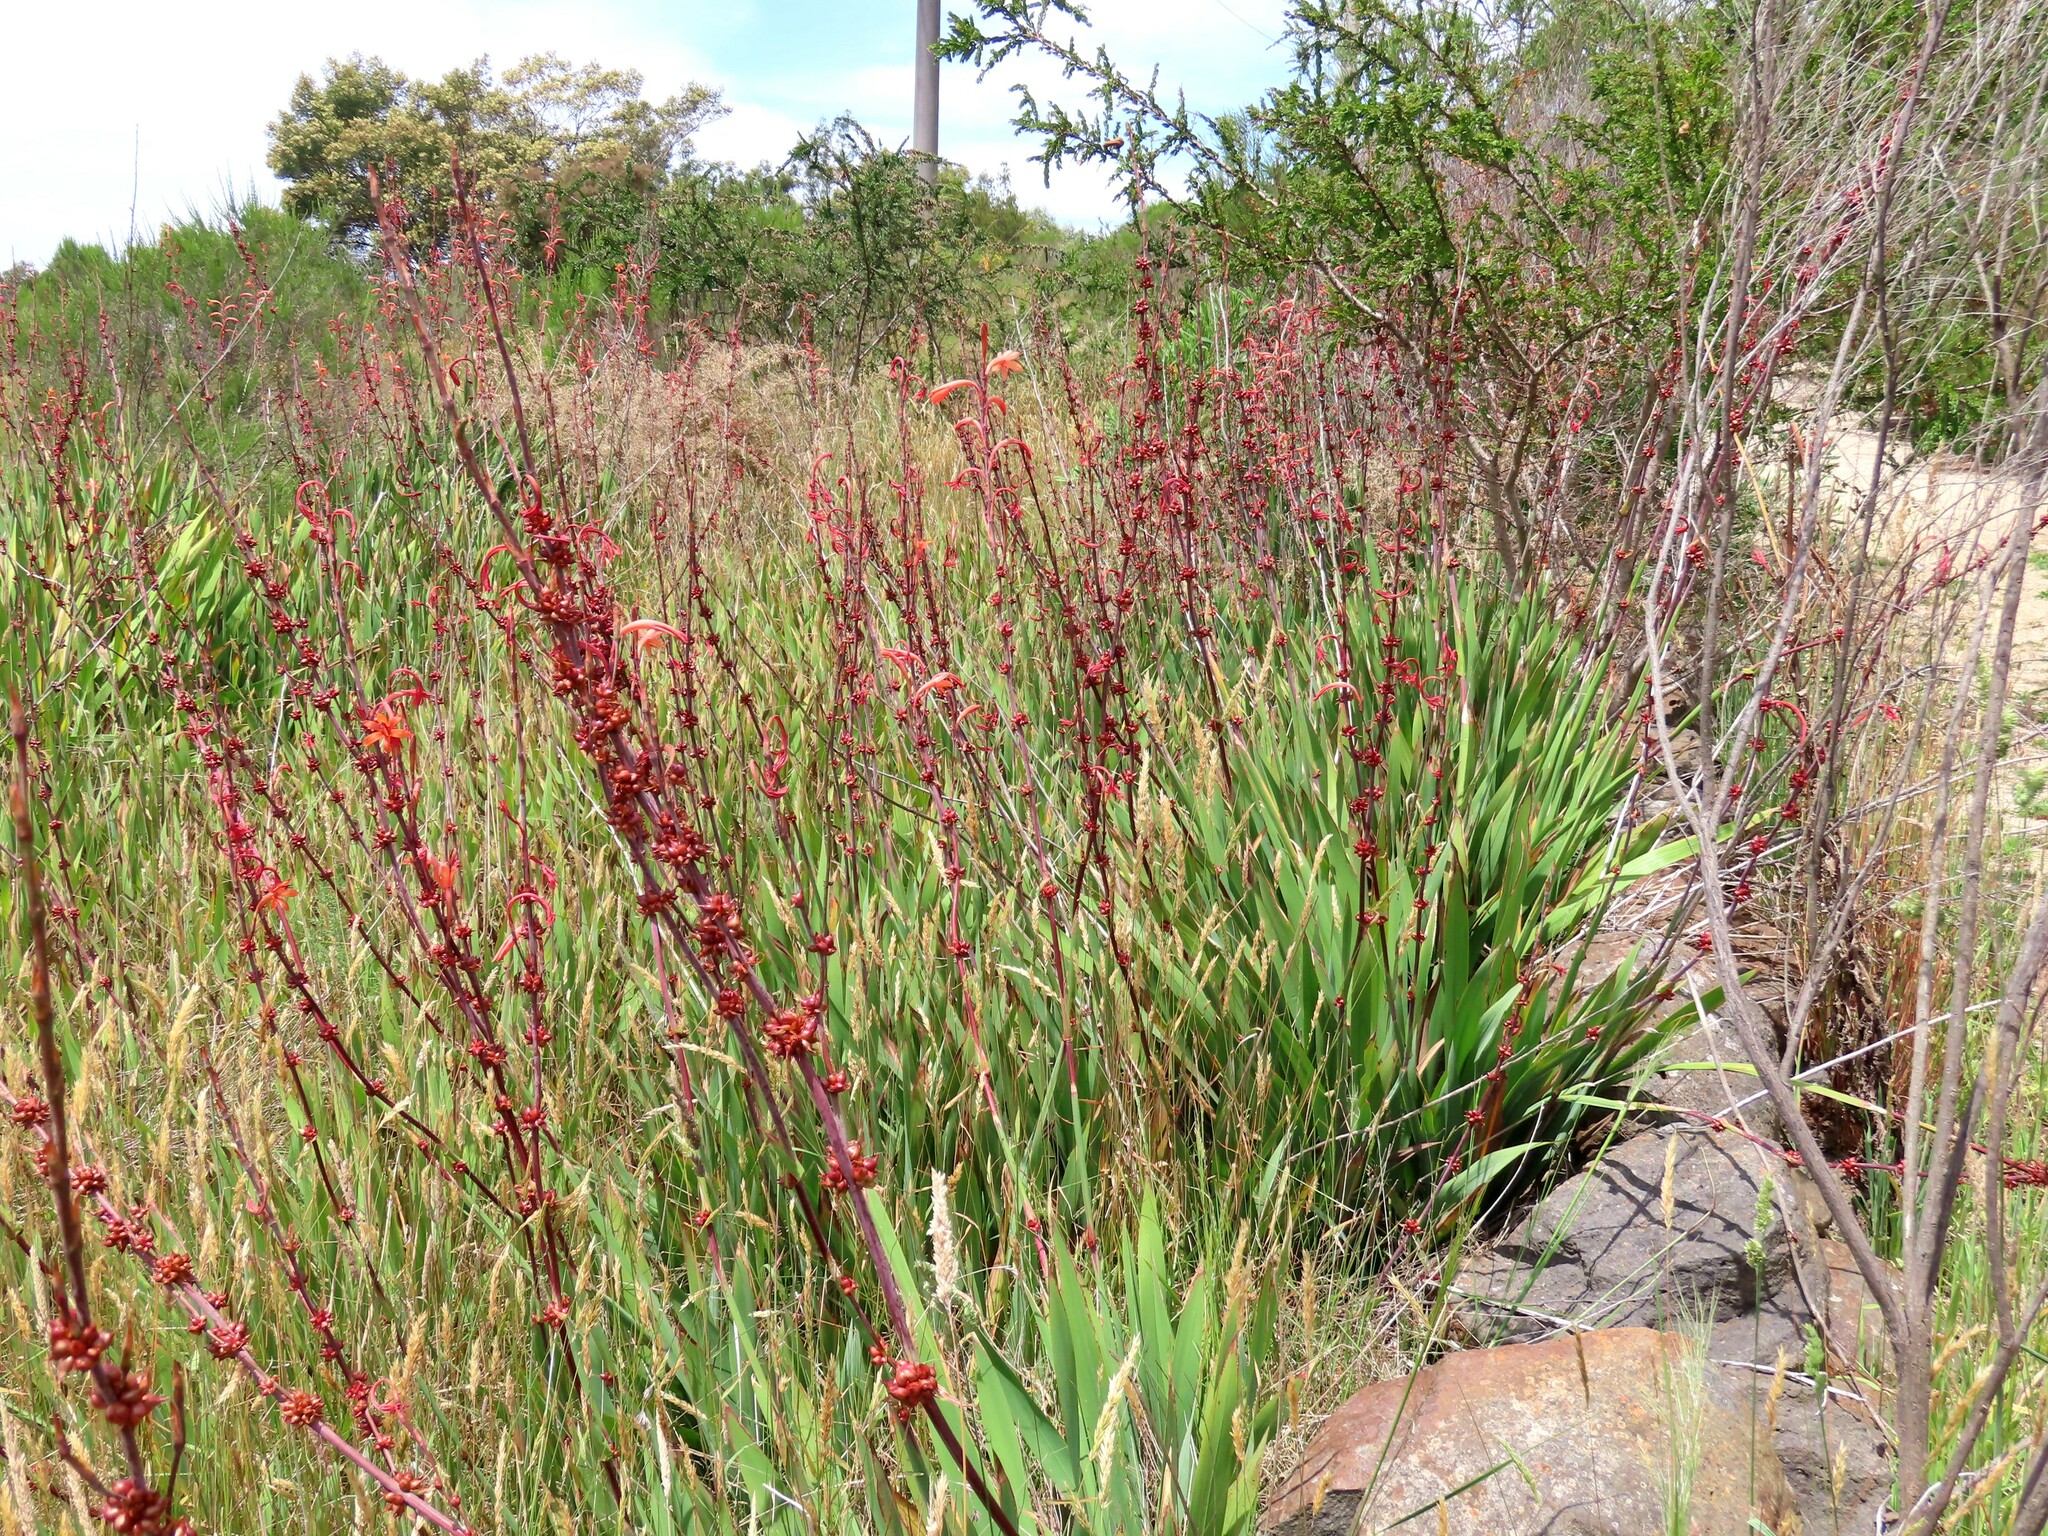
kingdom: Plantae
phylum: Tracheophyta
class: Liliopsida
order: Asparagales
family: Iridaceae
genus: Watsonia
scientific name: Watsonia meriana
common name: Bulbil bugle-lily
